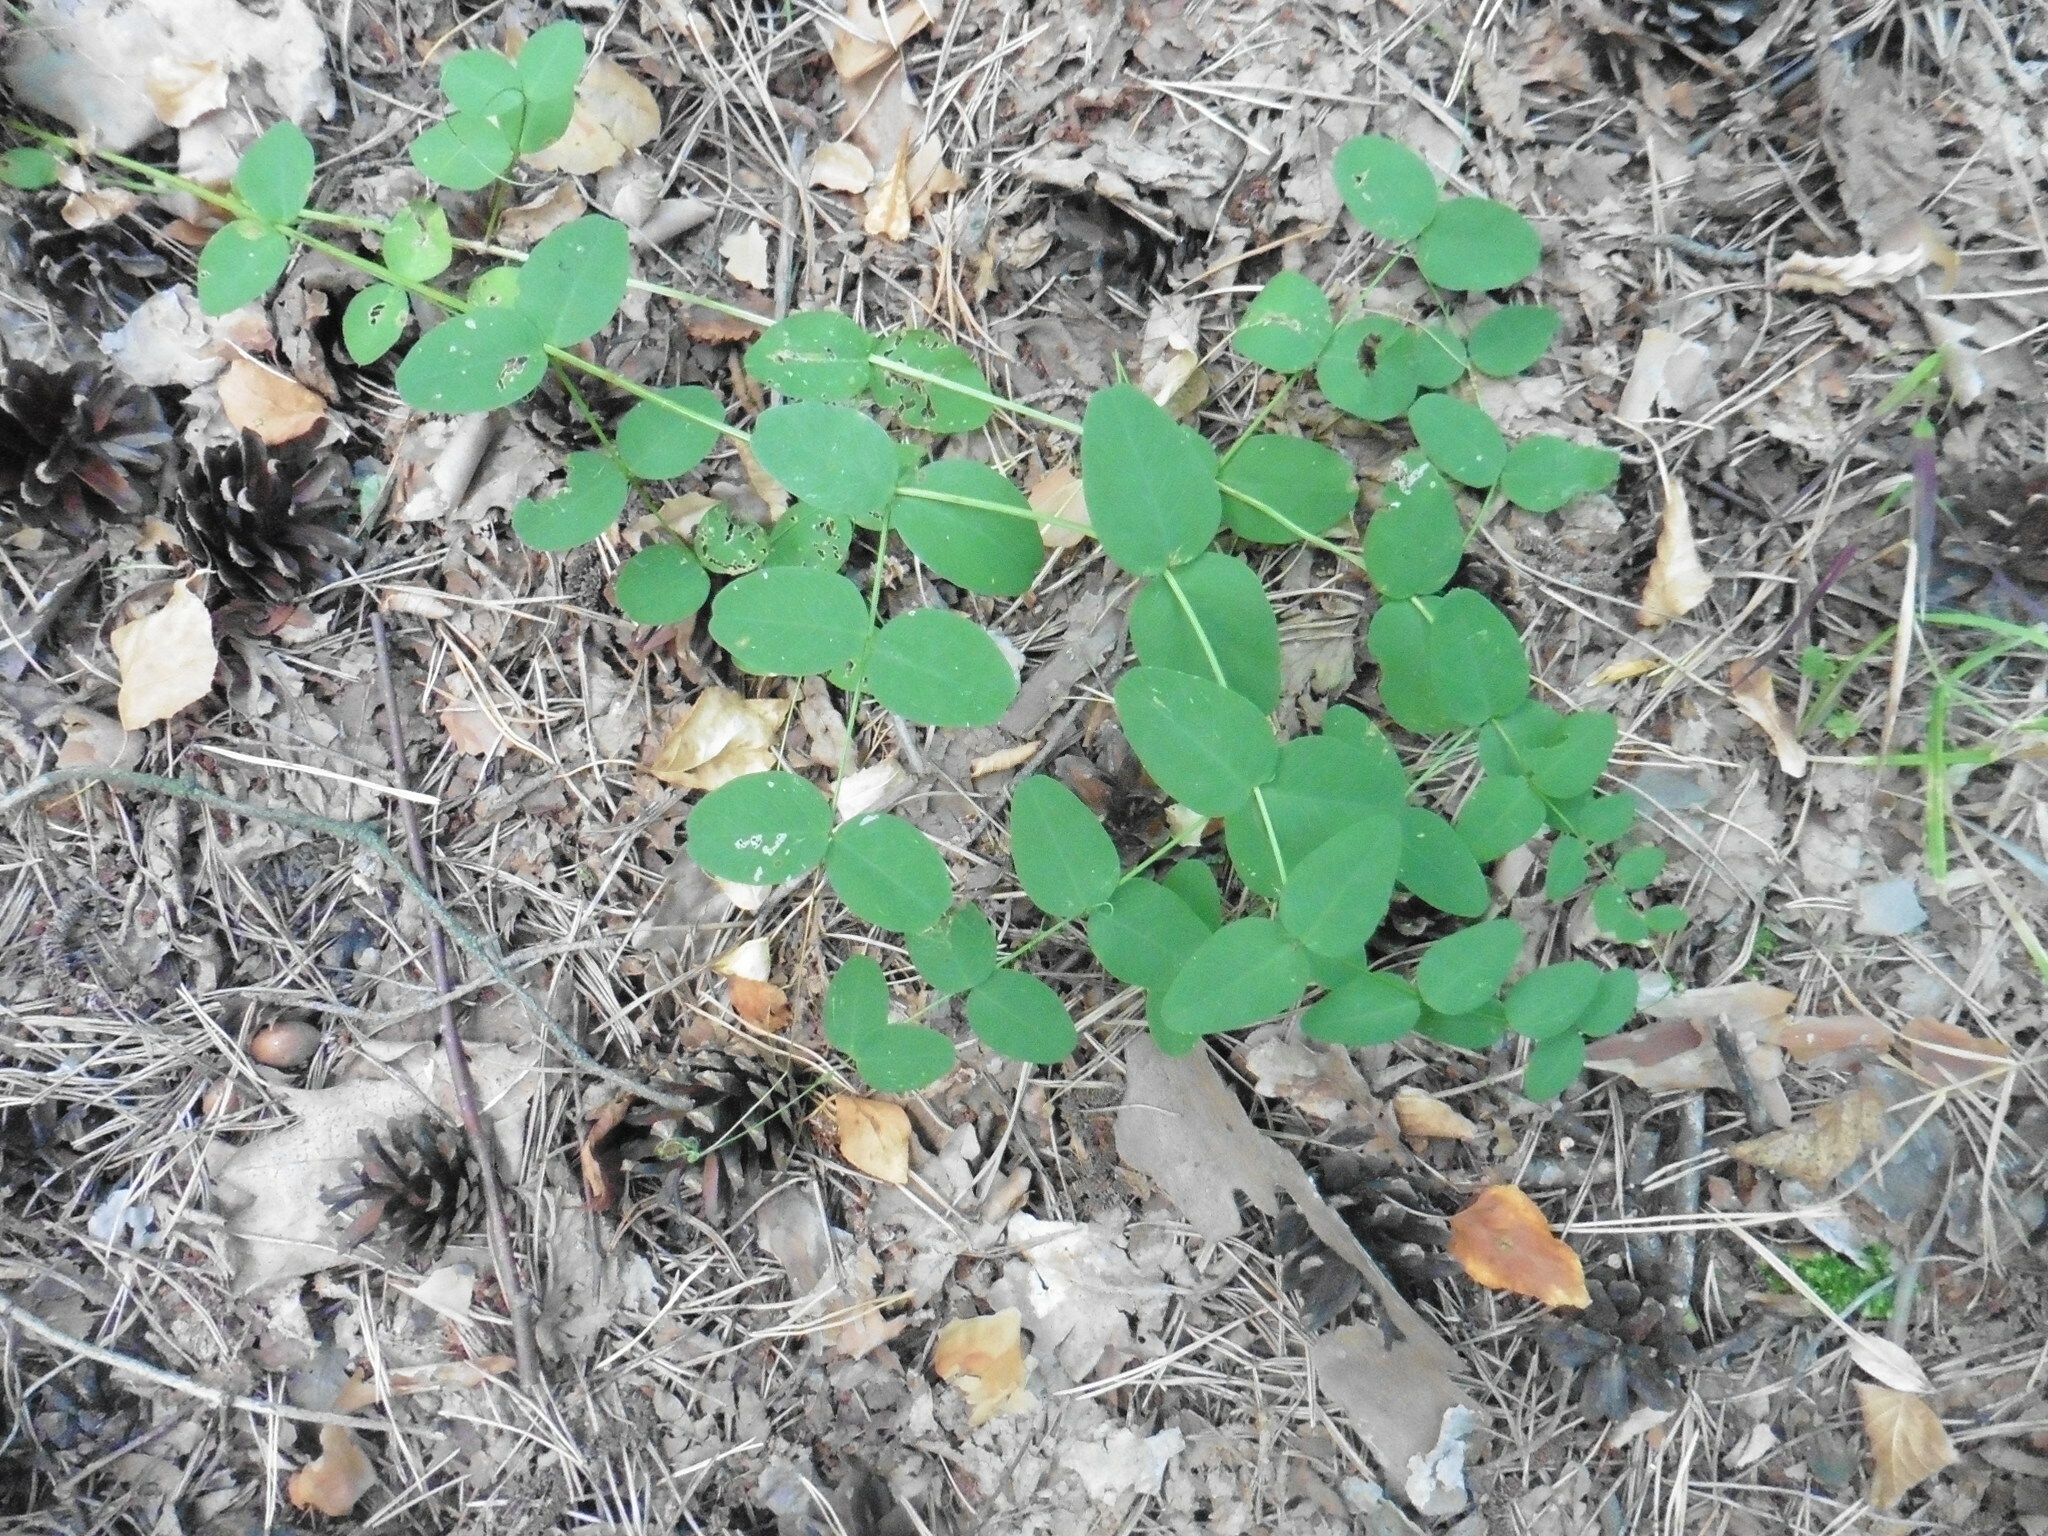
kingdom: Plantae
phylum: Tracheophyta
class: Magnoliopsida
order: Fabales
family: Fabaceae
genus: Vicia
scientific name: Vicia pisiformis
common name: Pale-flower vetch
